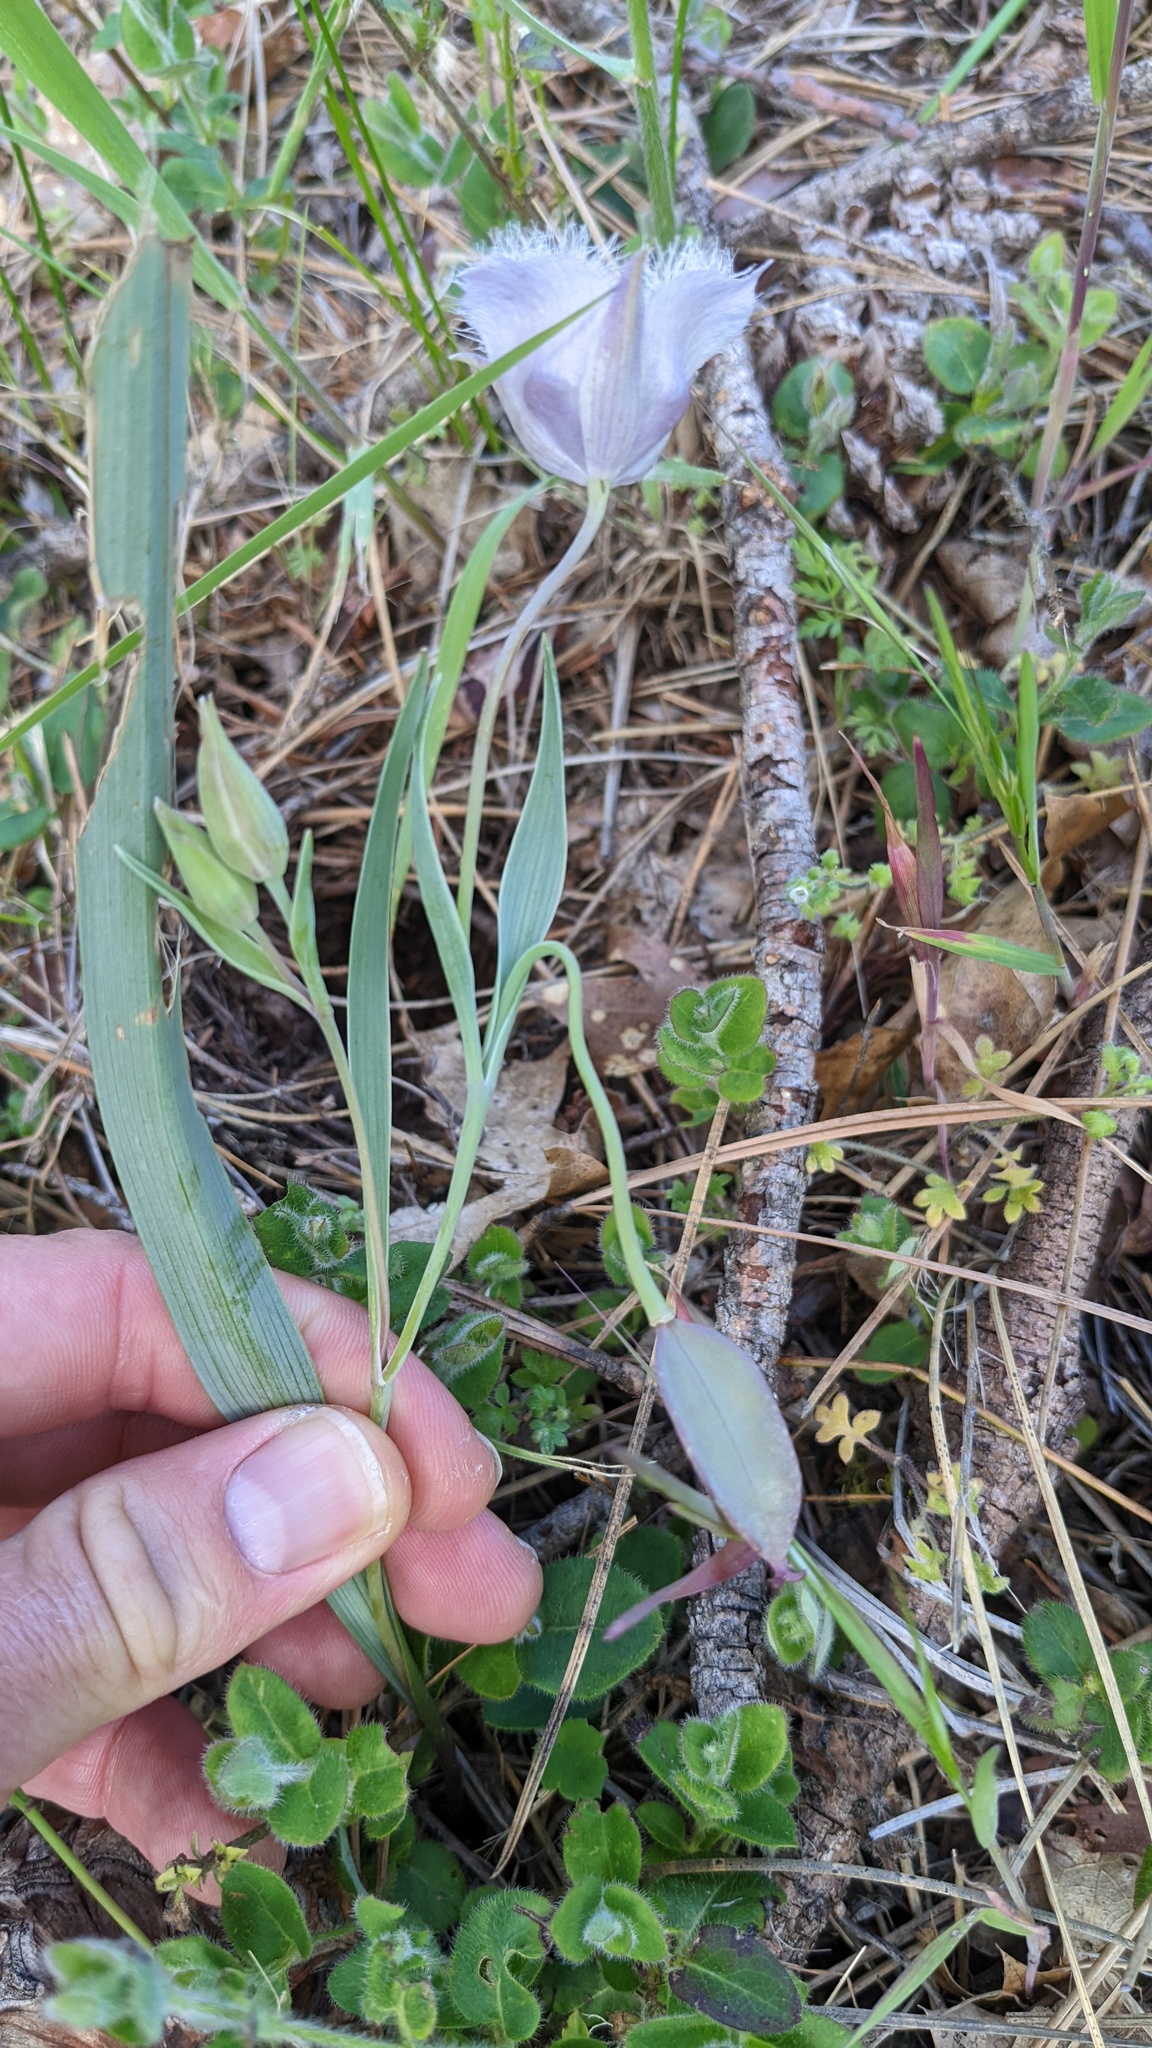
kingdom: Plantae
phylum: Tracheophyta
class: Liliopsida
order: Liliales
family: Liliaceae
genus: Calochortus
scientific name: Calochortus tolmiei
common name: Pussy-ears
